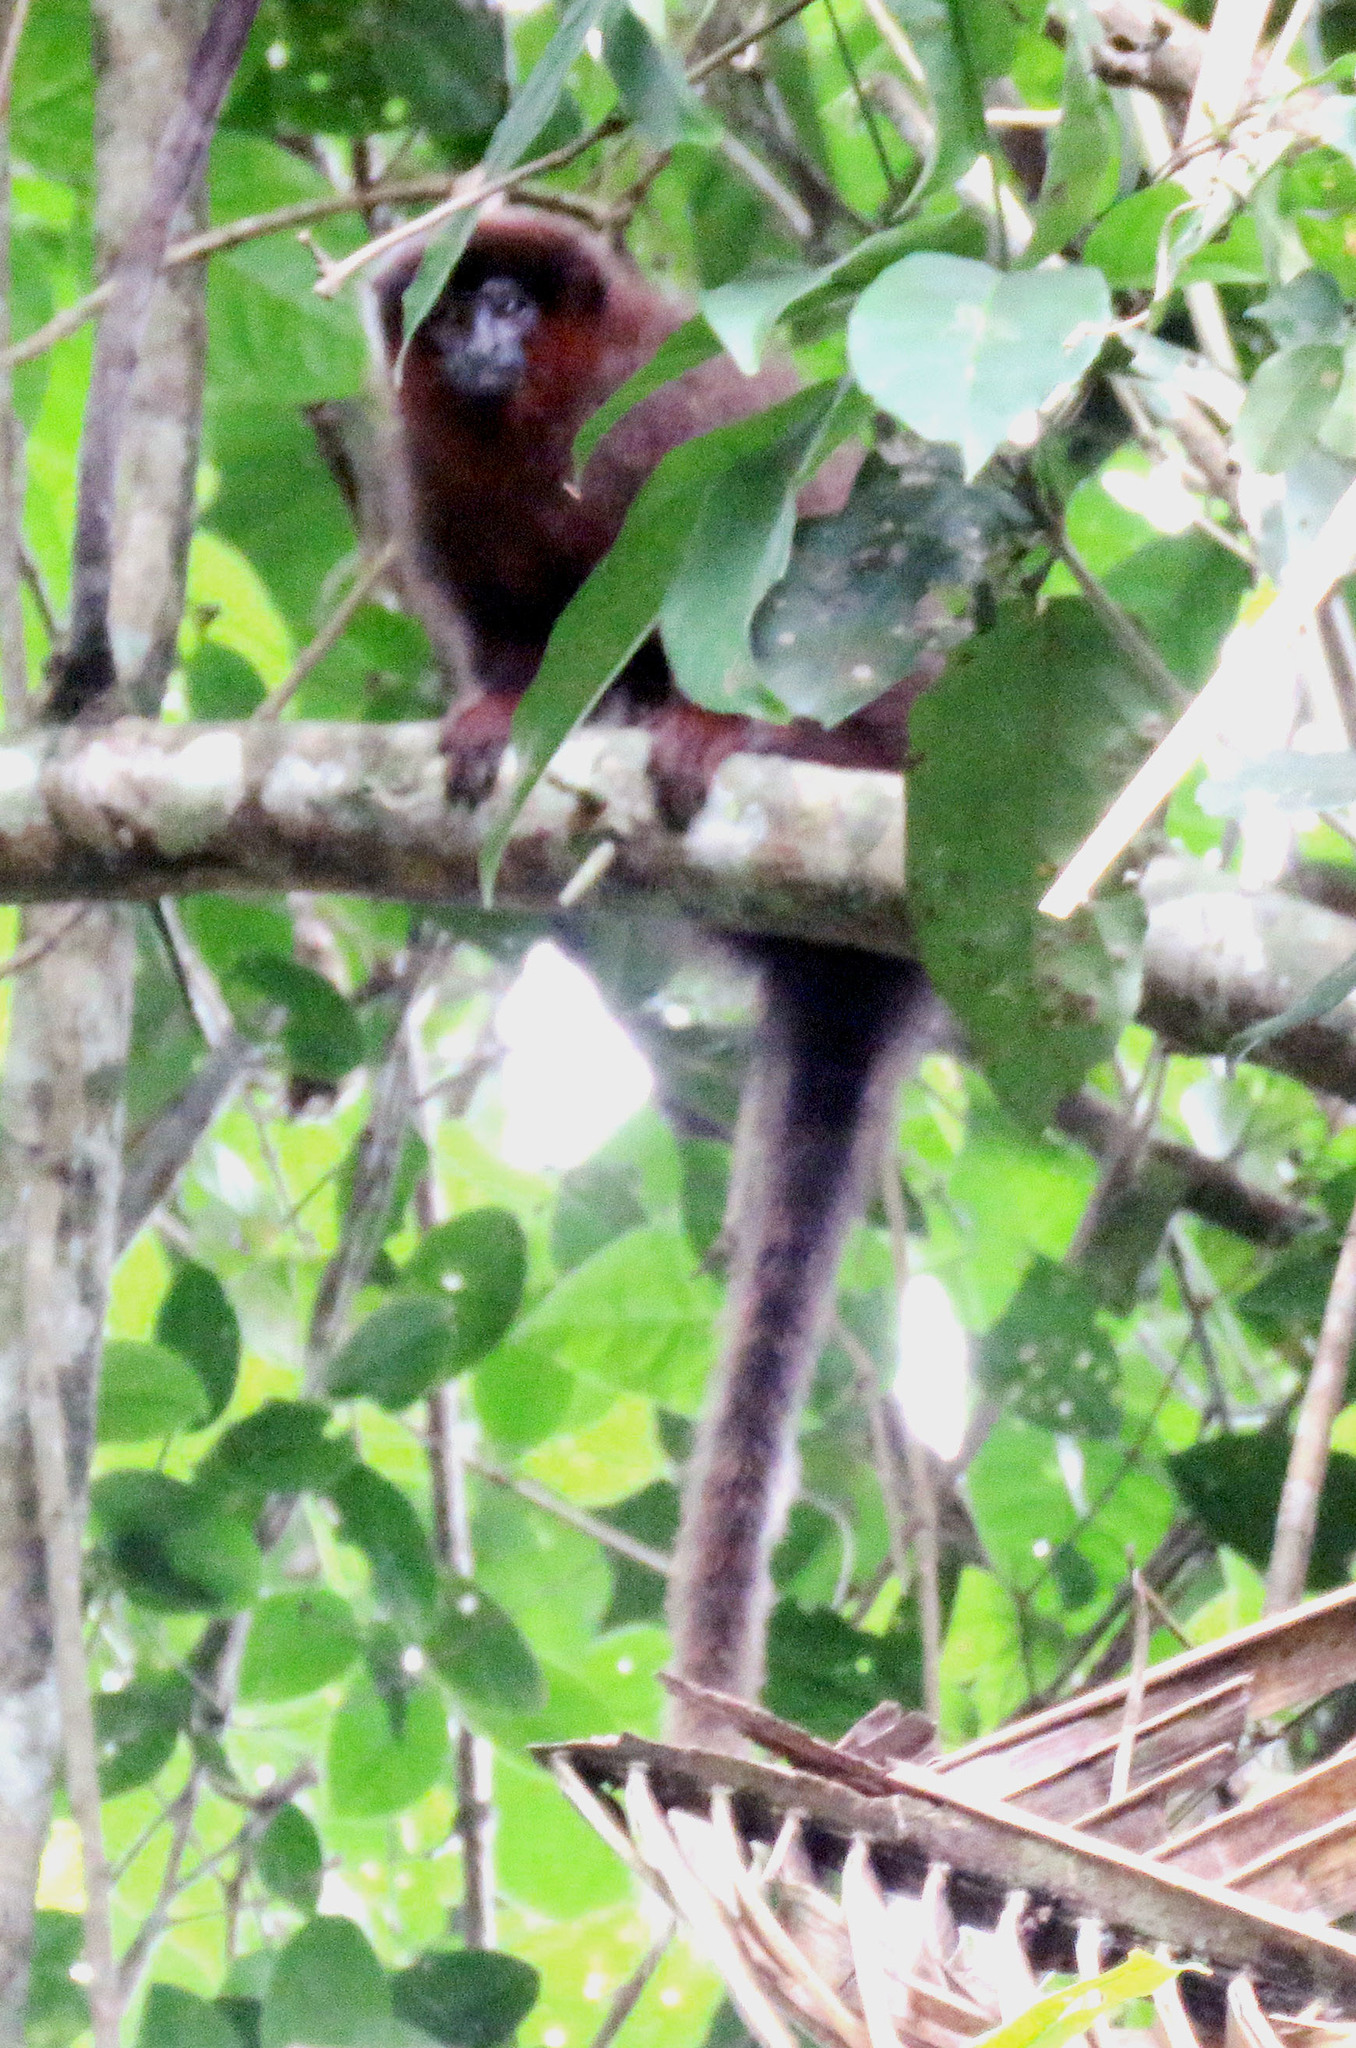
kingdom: Animalia
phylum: Chordata
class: Mammalia
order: Primates
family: Pitheciidae
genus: Plecturocebus
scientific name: Plecturocebus toppini
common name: Toppin's titi
